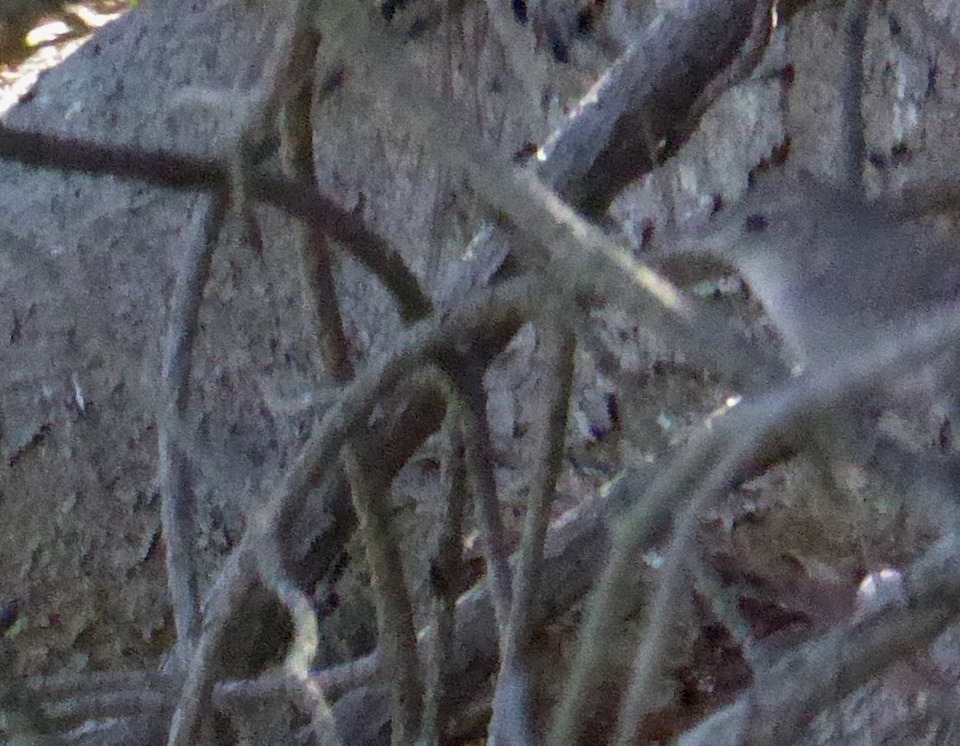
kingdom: Animalia
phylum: Chordata
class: Aves
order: Passeriformes
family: Troglodytidae
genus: Troglodytes
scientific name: Troglodytes aedon
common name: House wren
